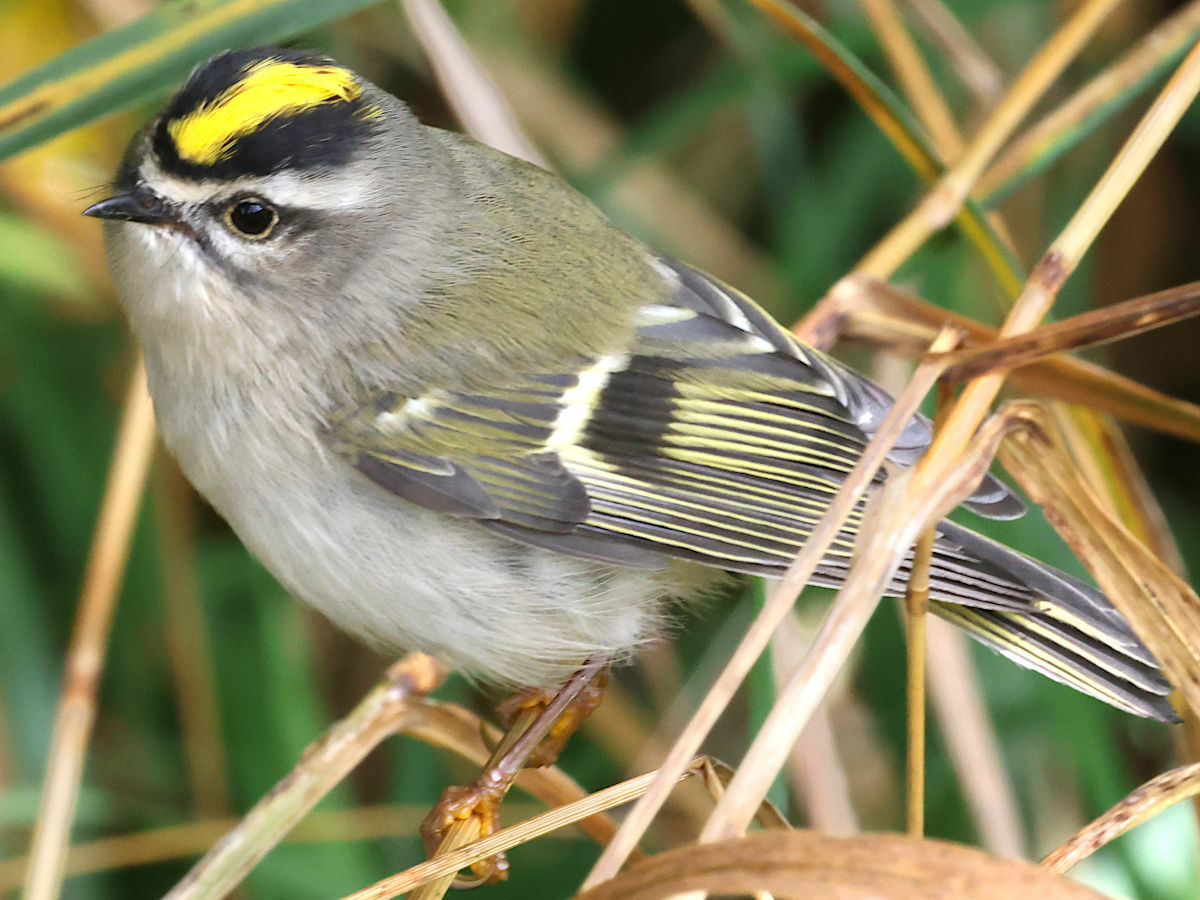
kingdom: Animalia
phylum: Chordata
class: Aves
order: Passeriformes
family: Regulidae
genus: Regulus
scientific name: Regulus satrapa
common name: Golden-crowned kinglet
